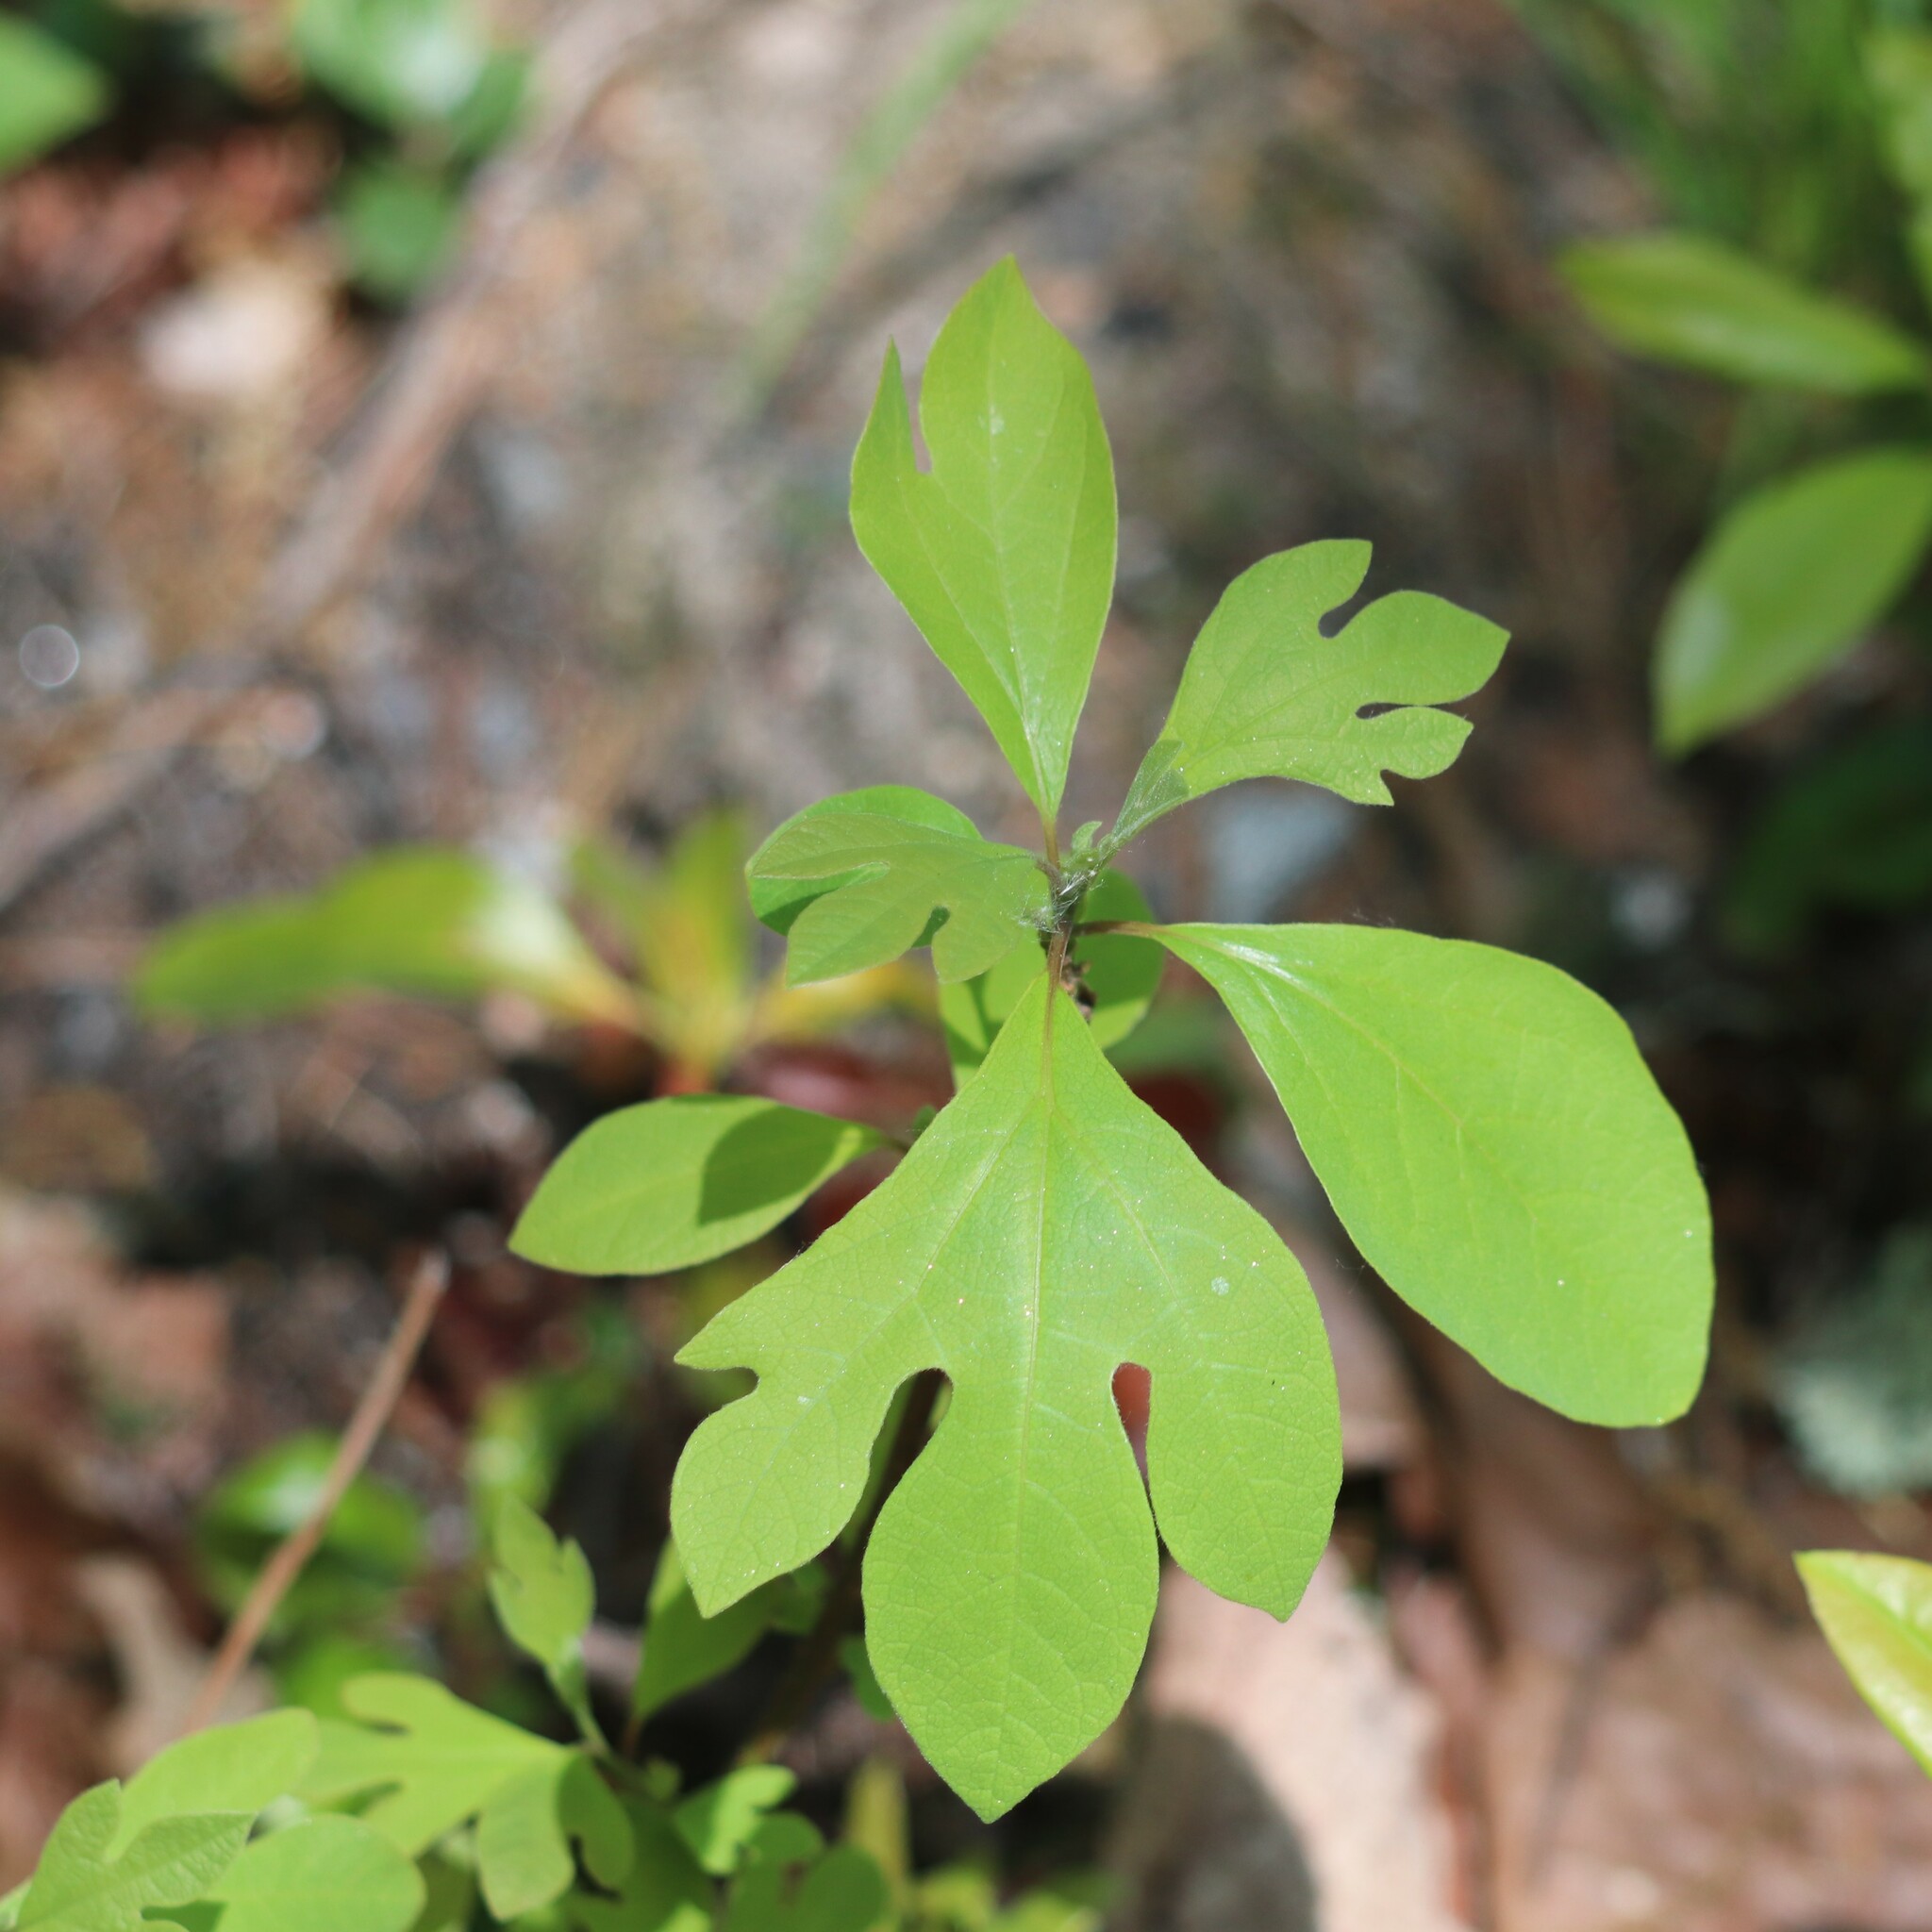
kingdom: Plantae
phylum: Tracheophyta
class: Magnoliopsida
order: Laurales
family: Lauraceae
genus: Sassafras
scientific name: Sassafras albidum
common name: Sassafras
